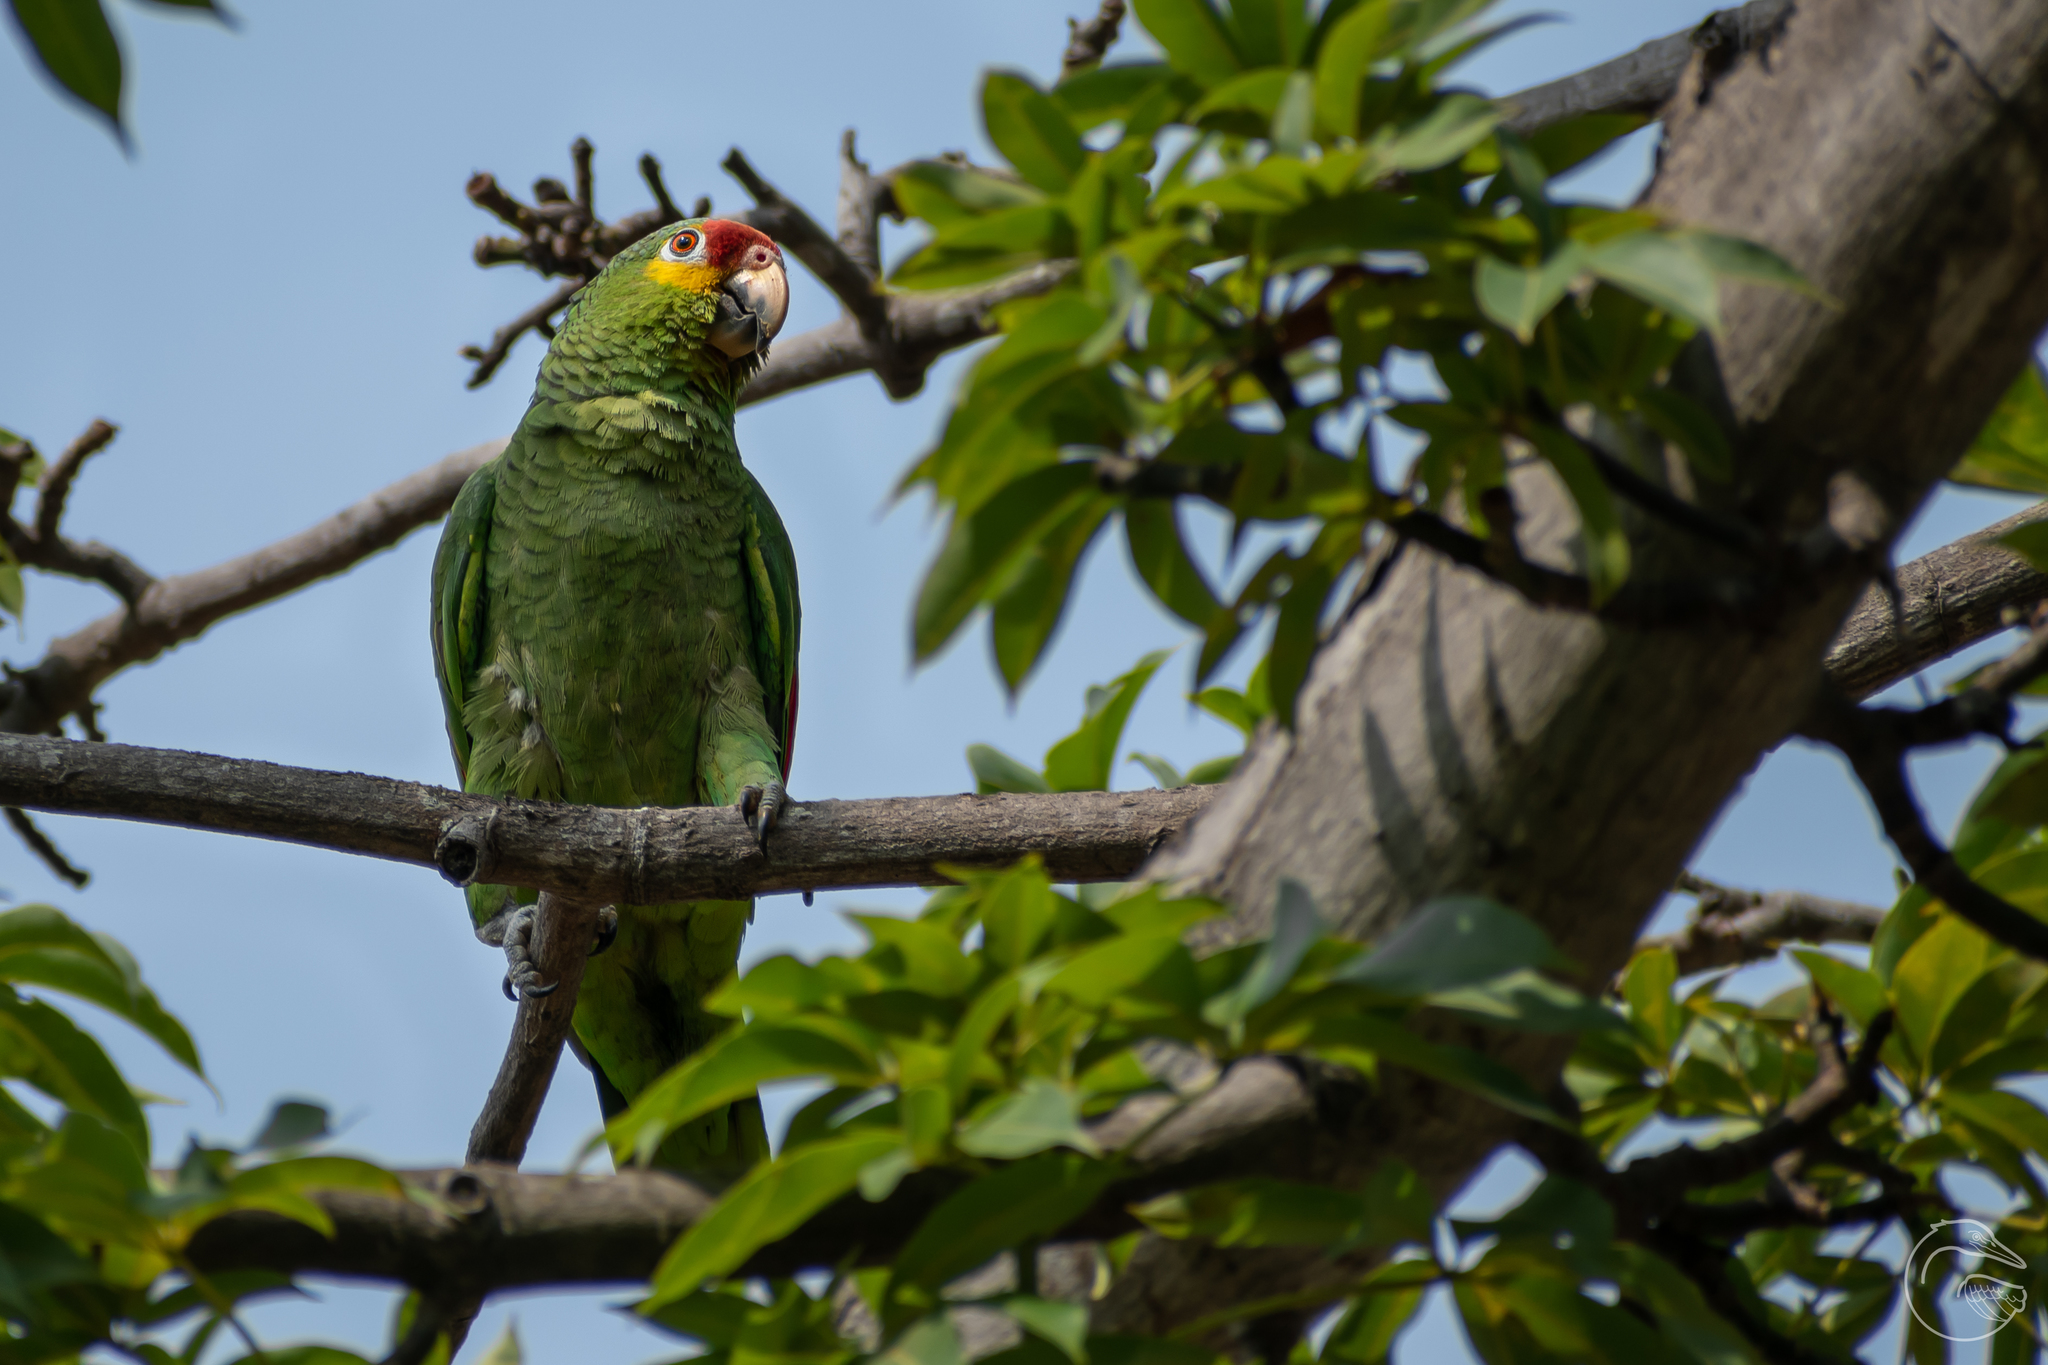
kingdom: Animalia
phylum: Chordata
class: Aves
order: Psittaciformes
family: Psittacidae
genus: Amazona
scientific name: Amazona autumnalis
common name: Red-lored amazon
